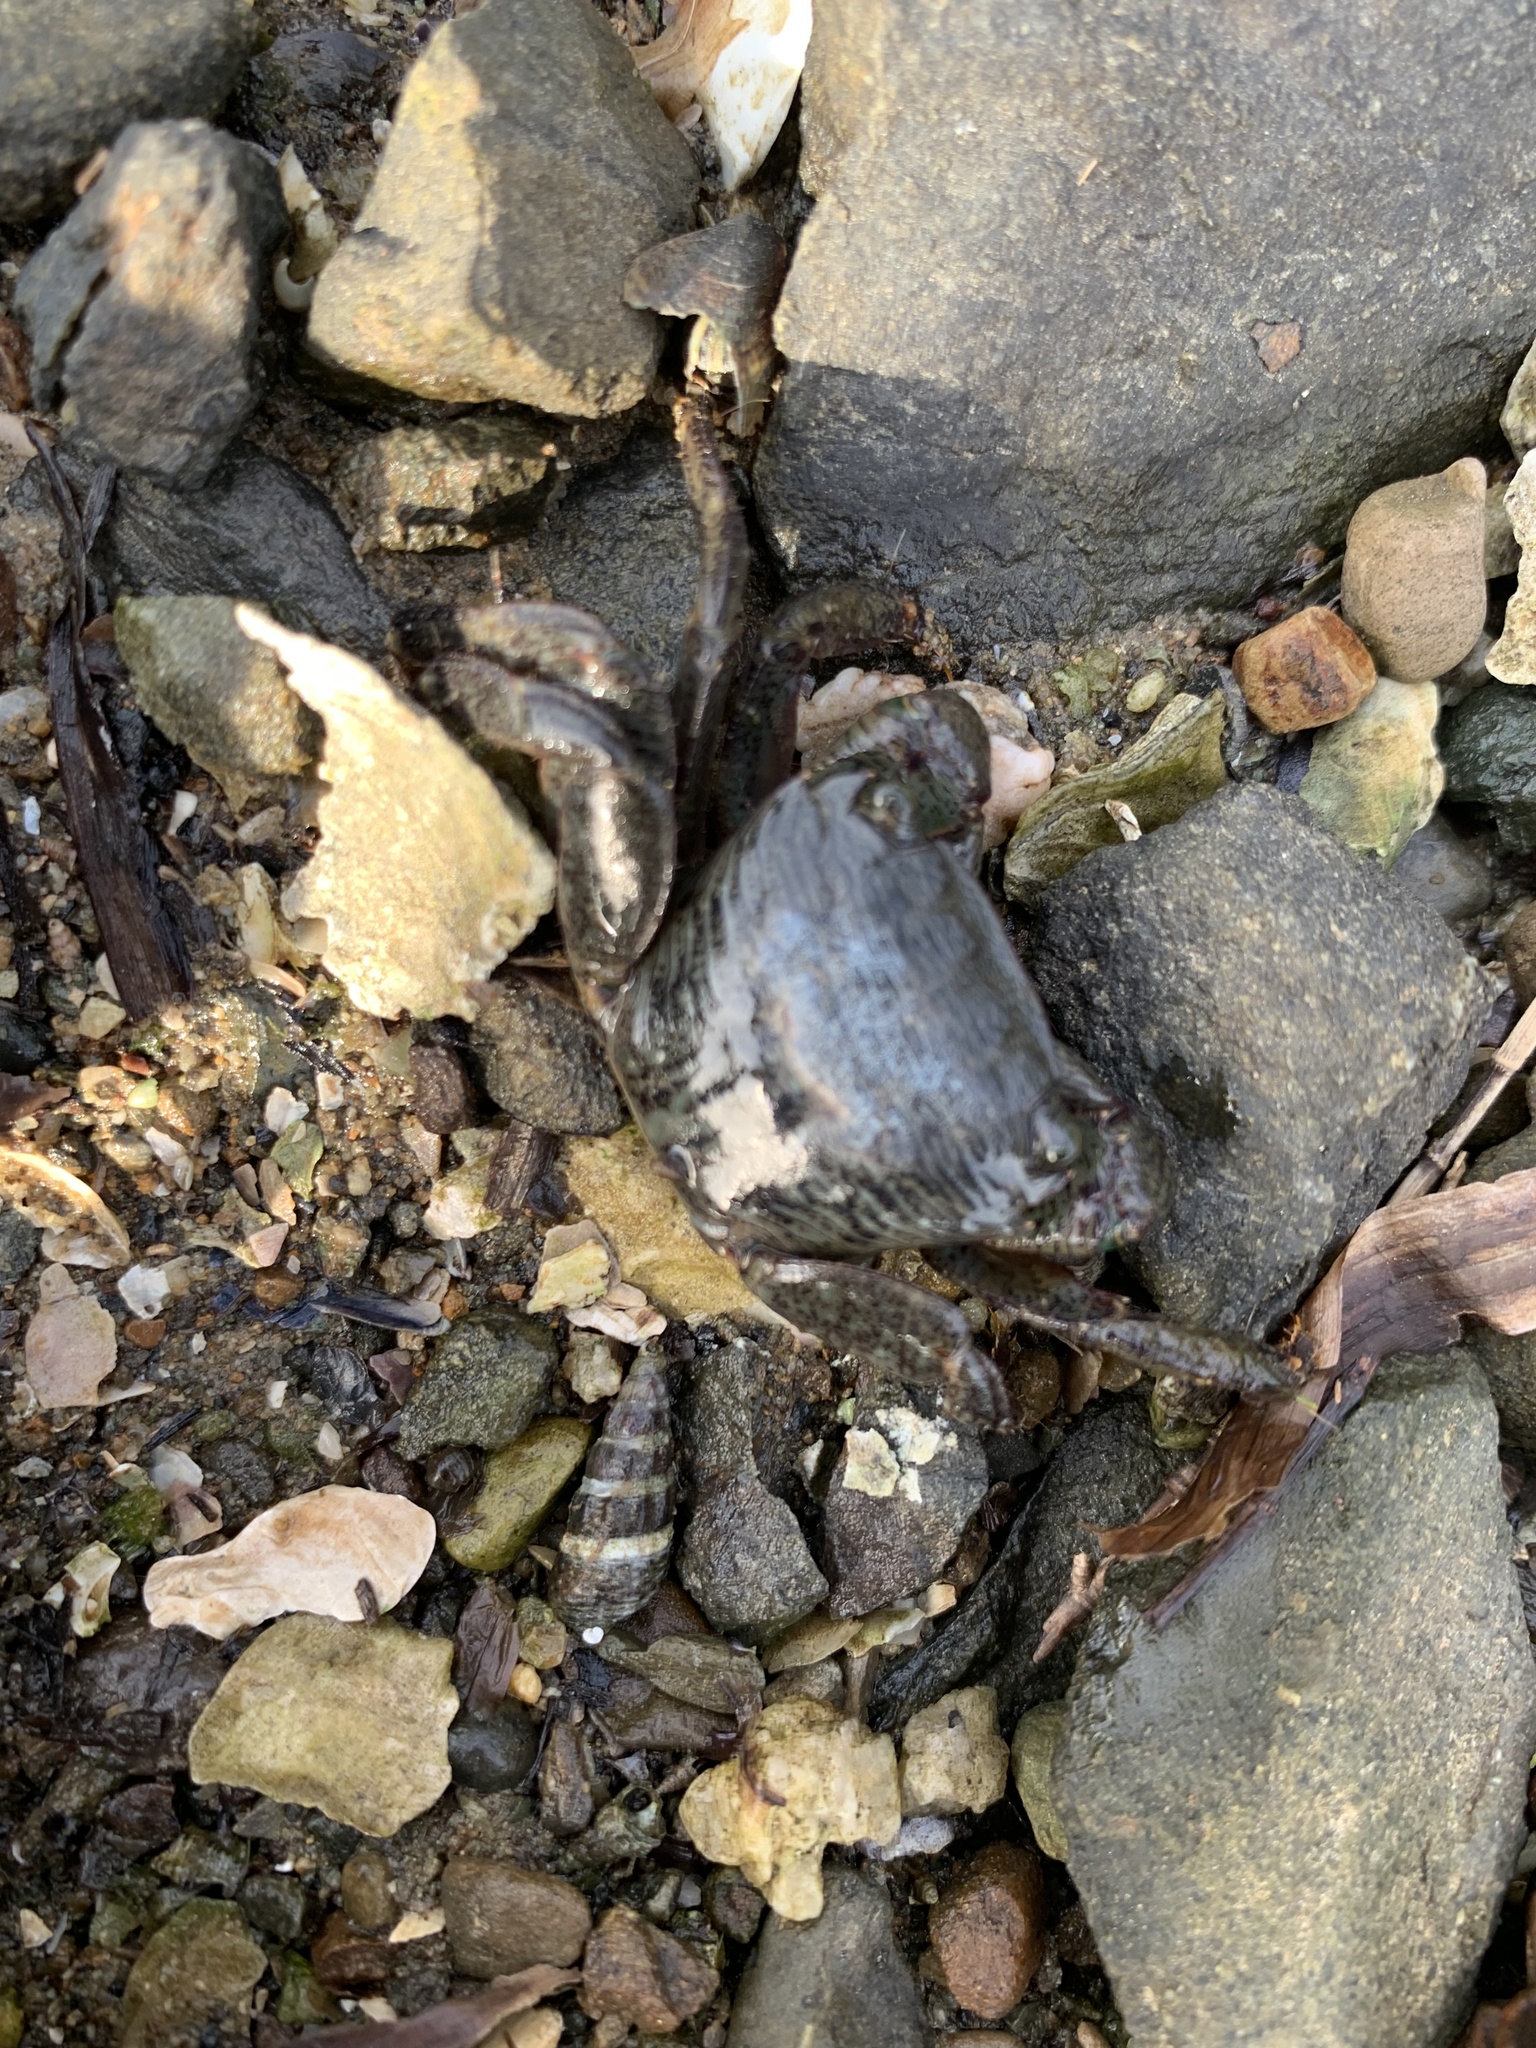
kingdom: Animalia
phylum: Arthropoda
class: Malacostraca
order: Decapoda
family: Grapsidae
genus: Pachygrapsus
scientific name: Pachygrapsus crassipes
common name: Striped shore crab
